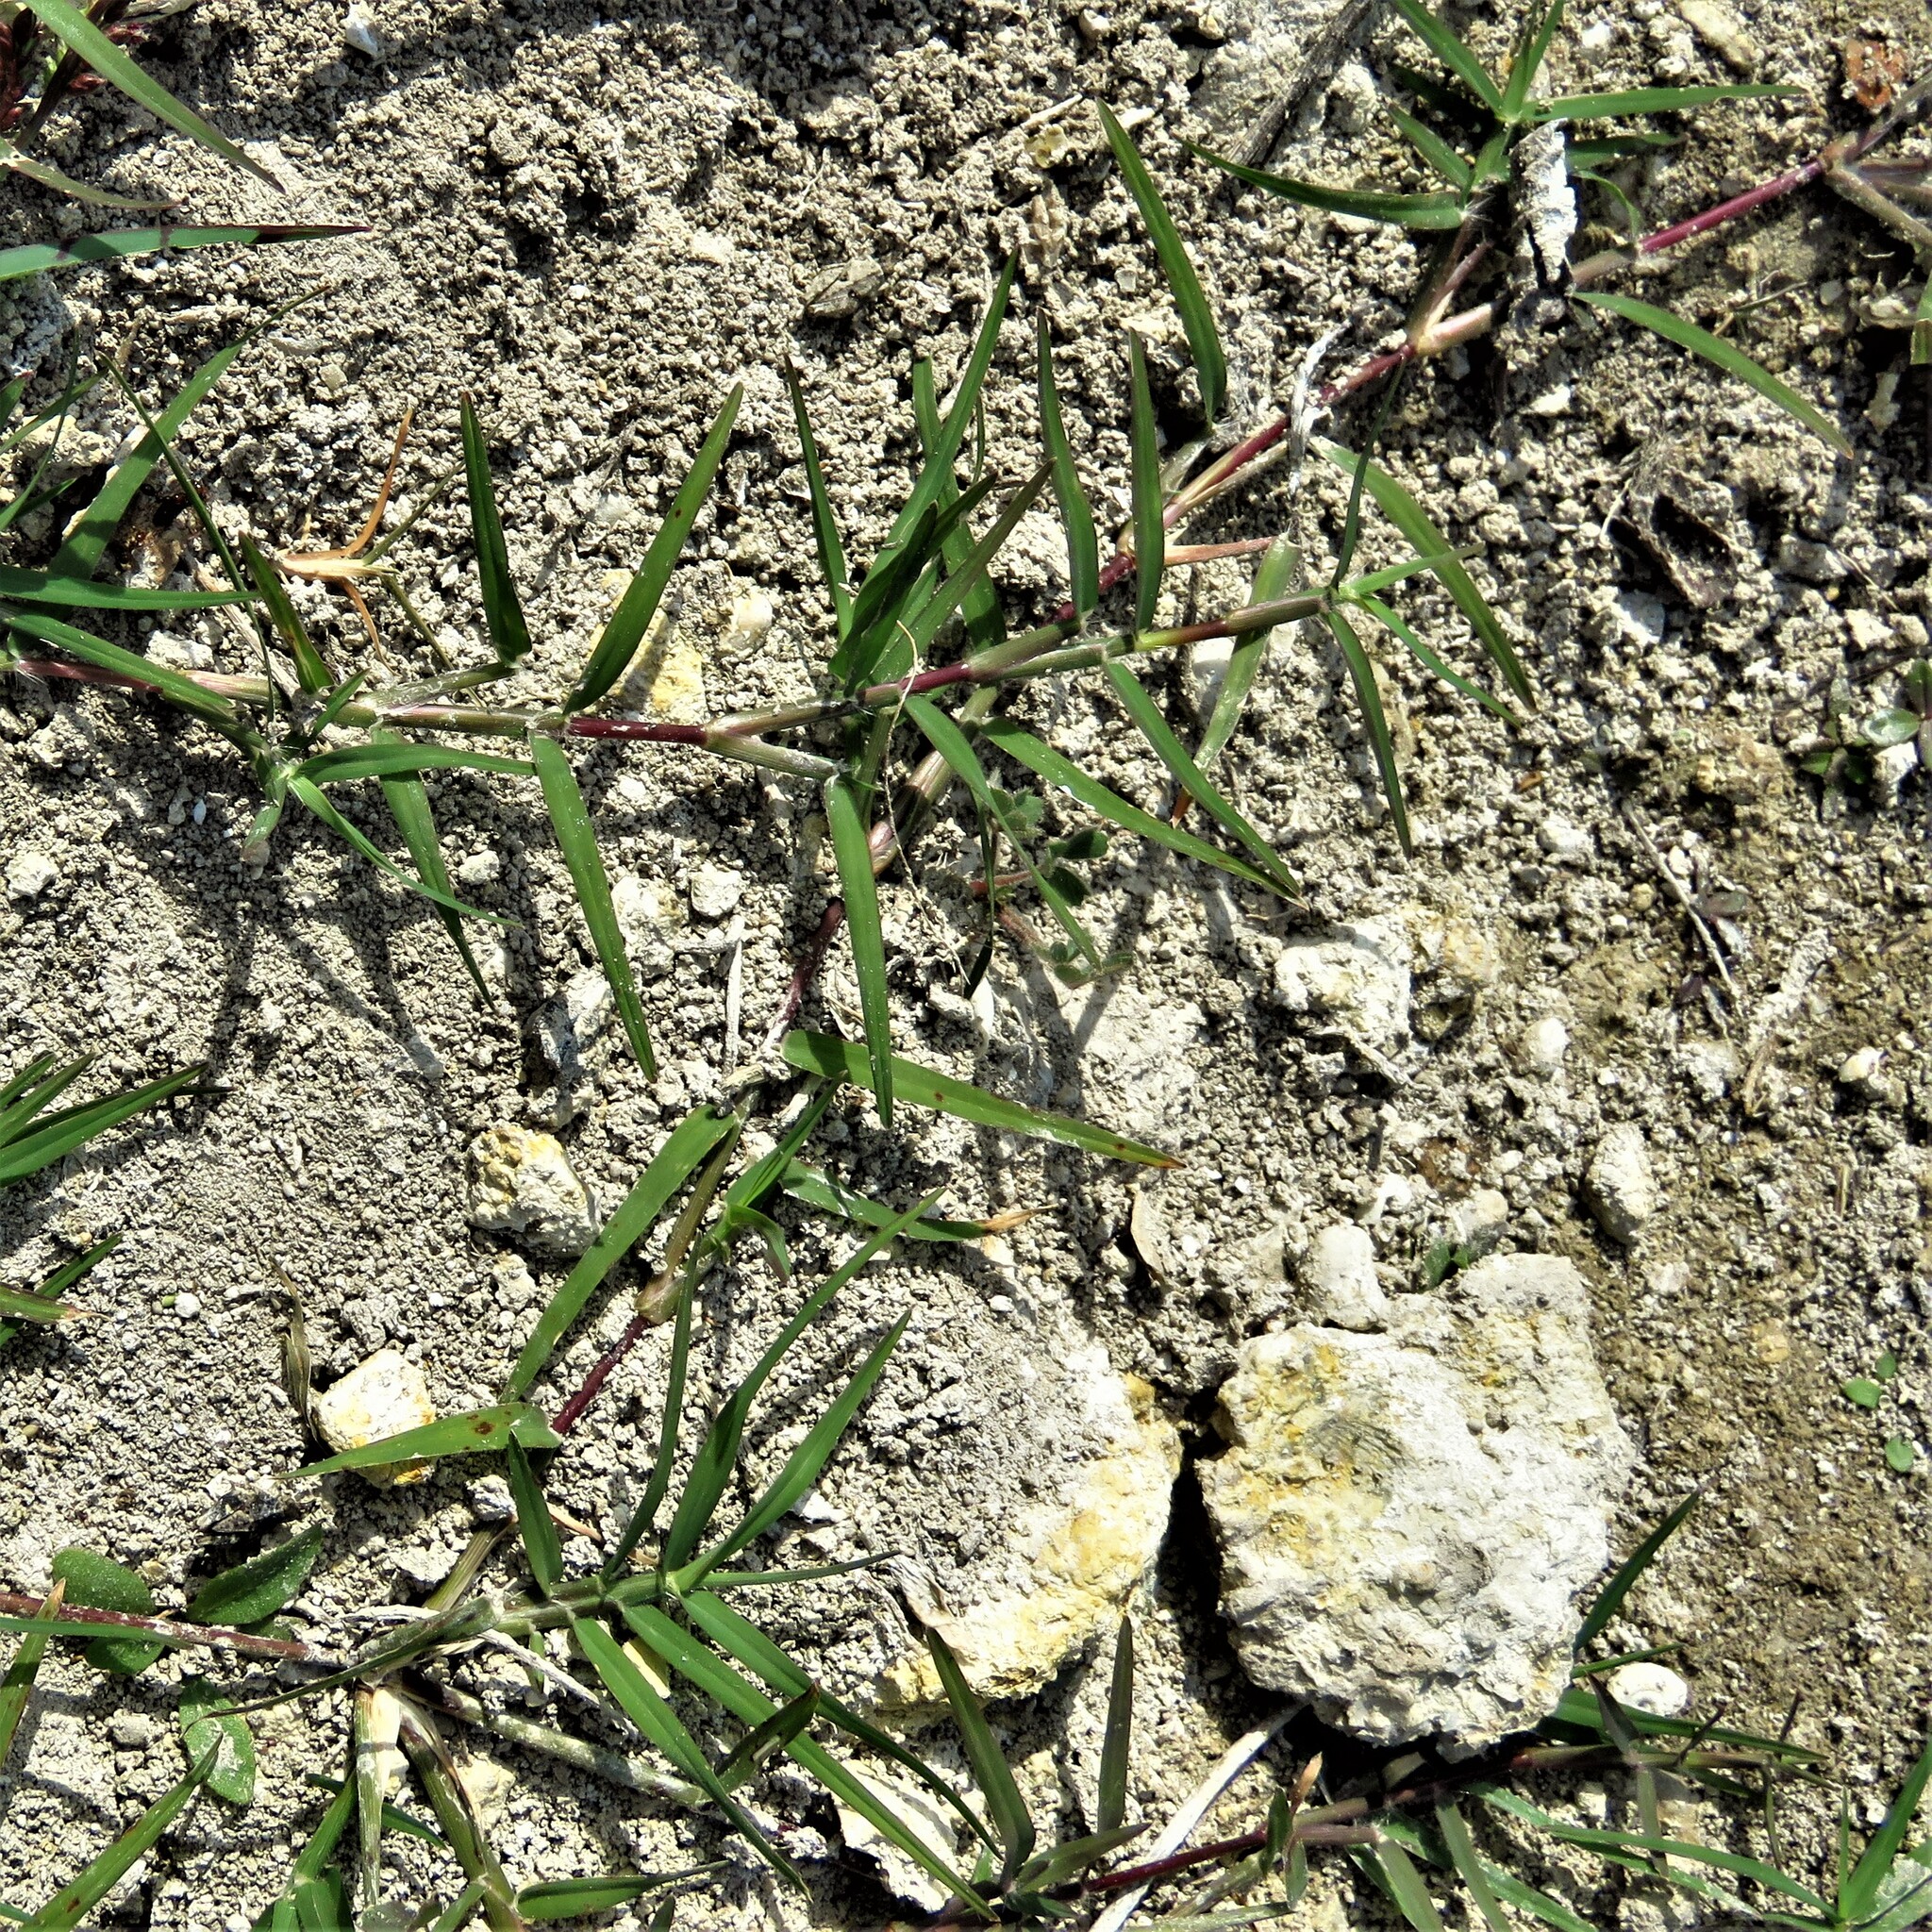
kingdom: Plantae
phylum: Tracheophyta
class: Liliopsida
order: Poales
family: Poaceae
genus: Cynodon
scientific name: Cynodon dactylon
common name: Bermuda grass
